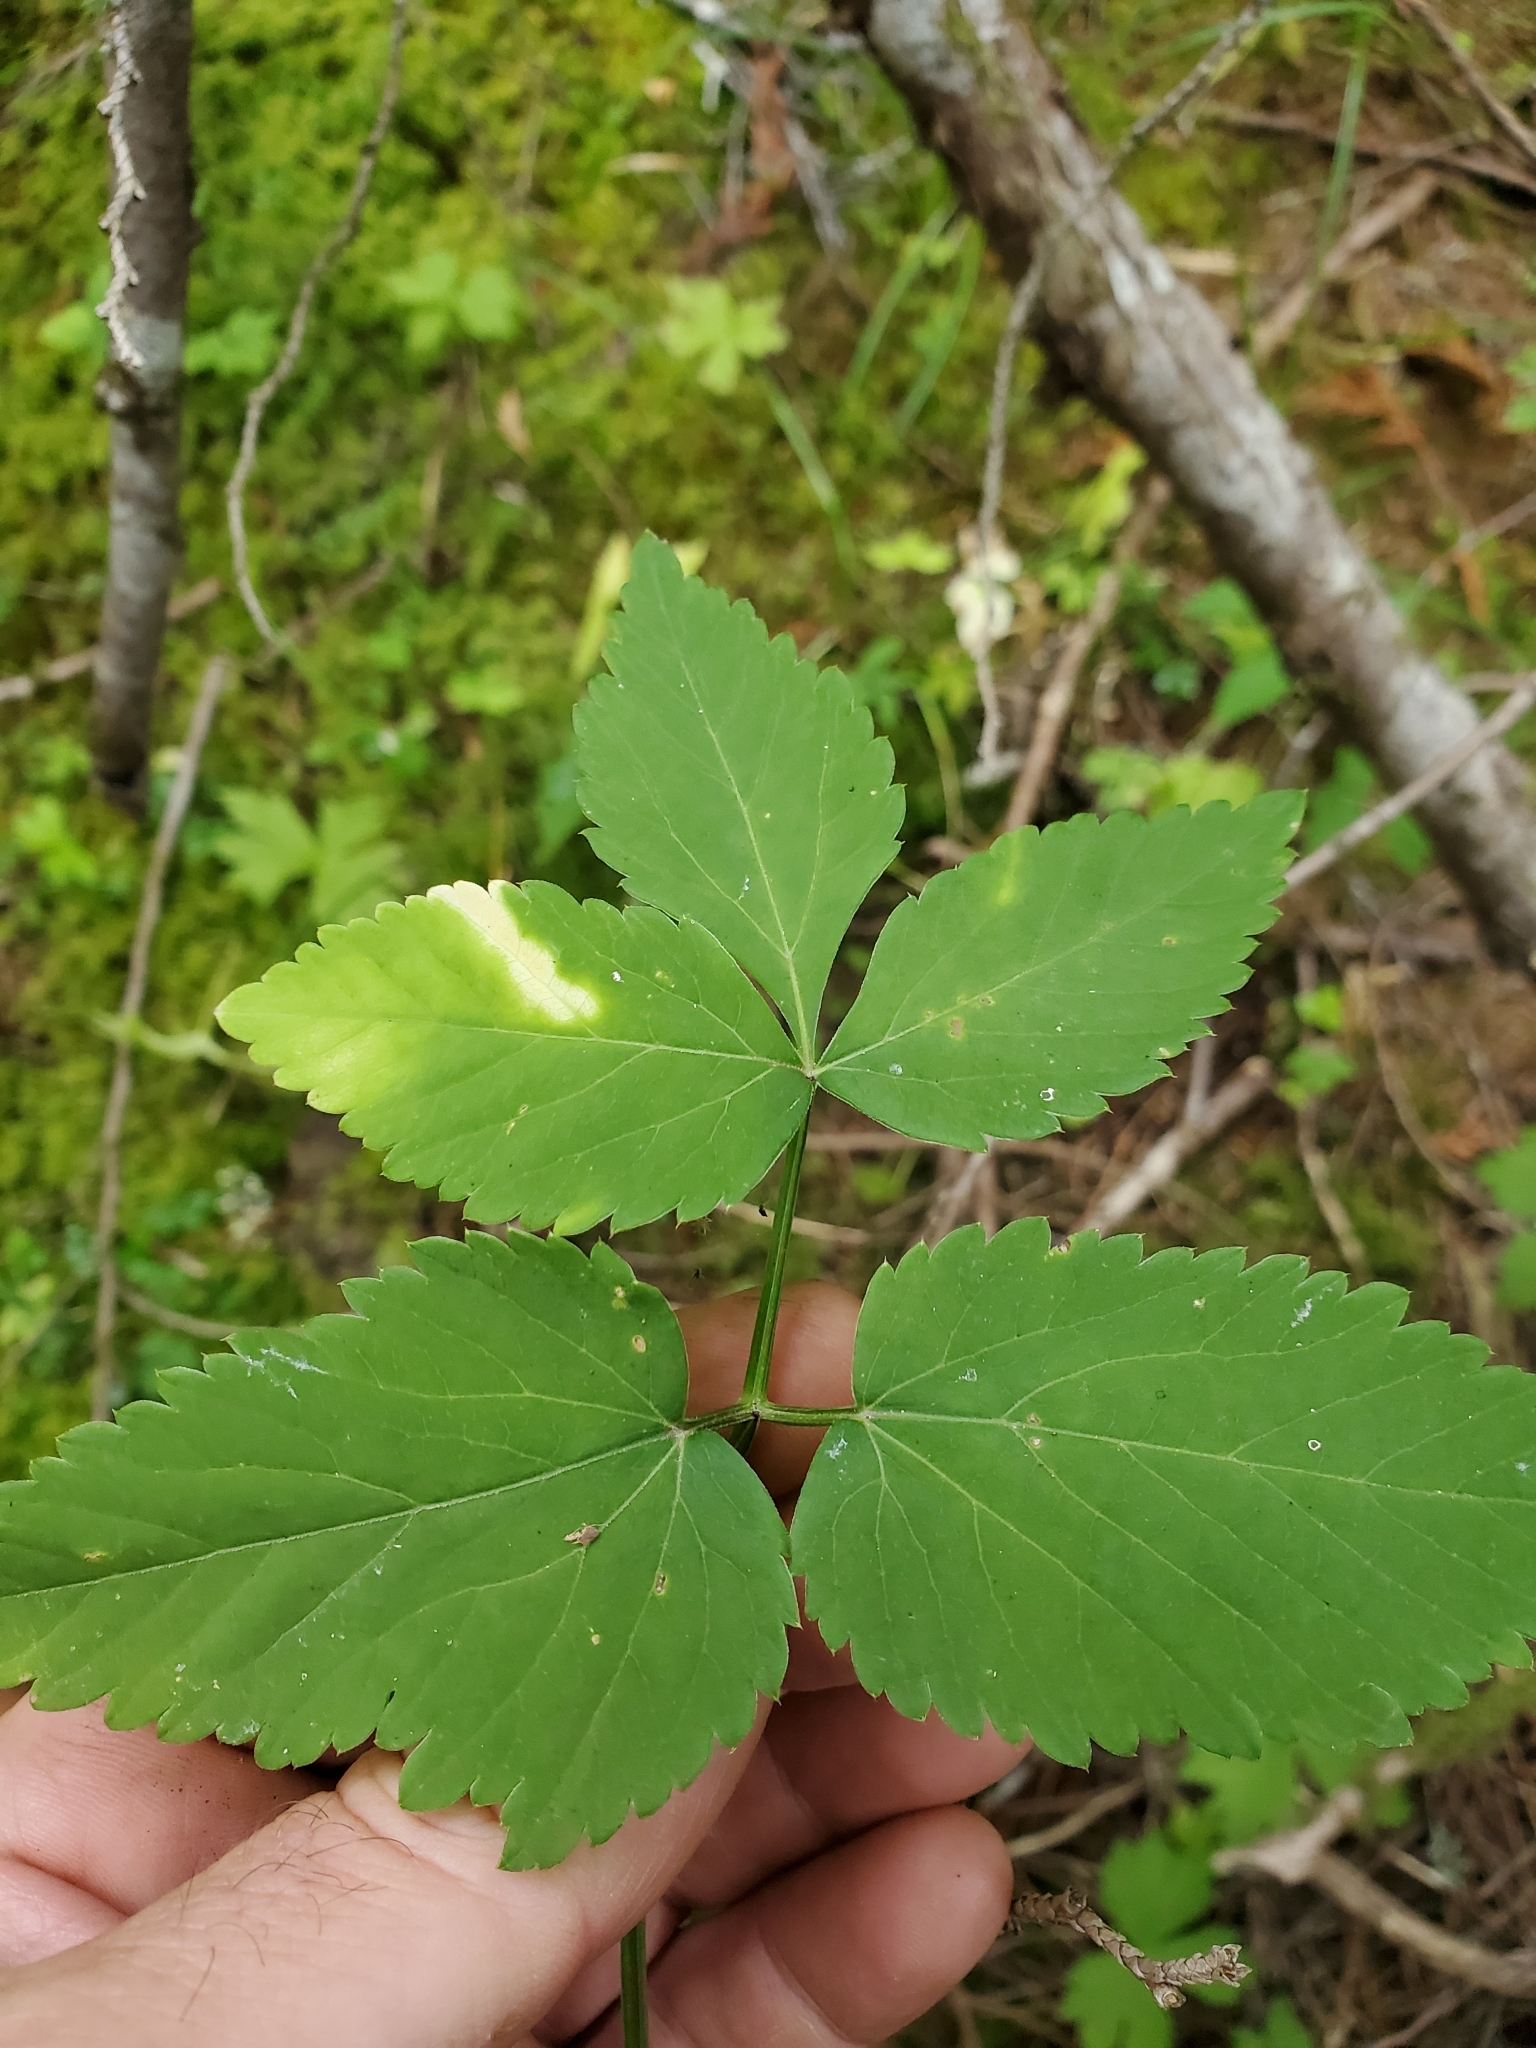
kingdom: Plantae
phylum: Tracheophyta
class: Magnoliopsida
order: Apiales
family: Apiaceae
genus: Angelica
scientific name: Angelica genuflexa
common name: Kneeling angelica
